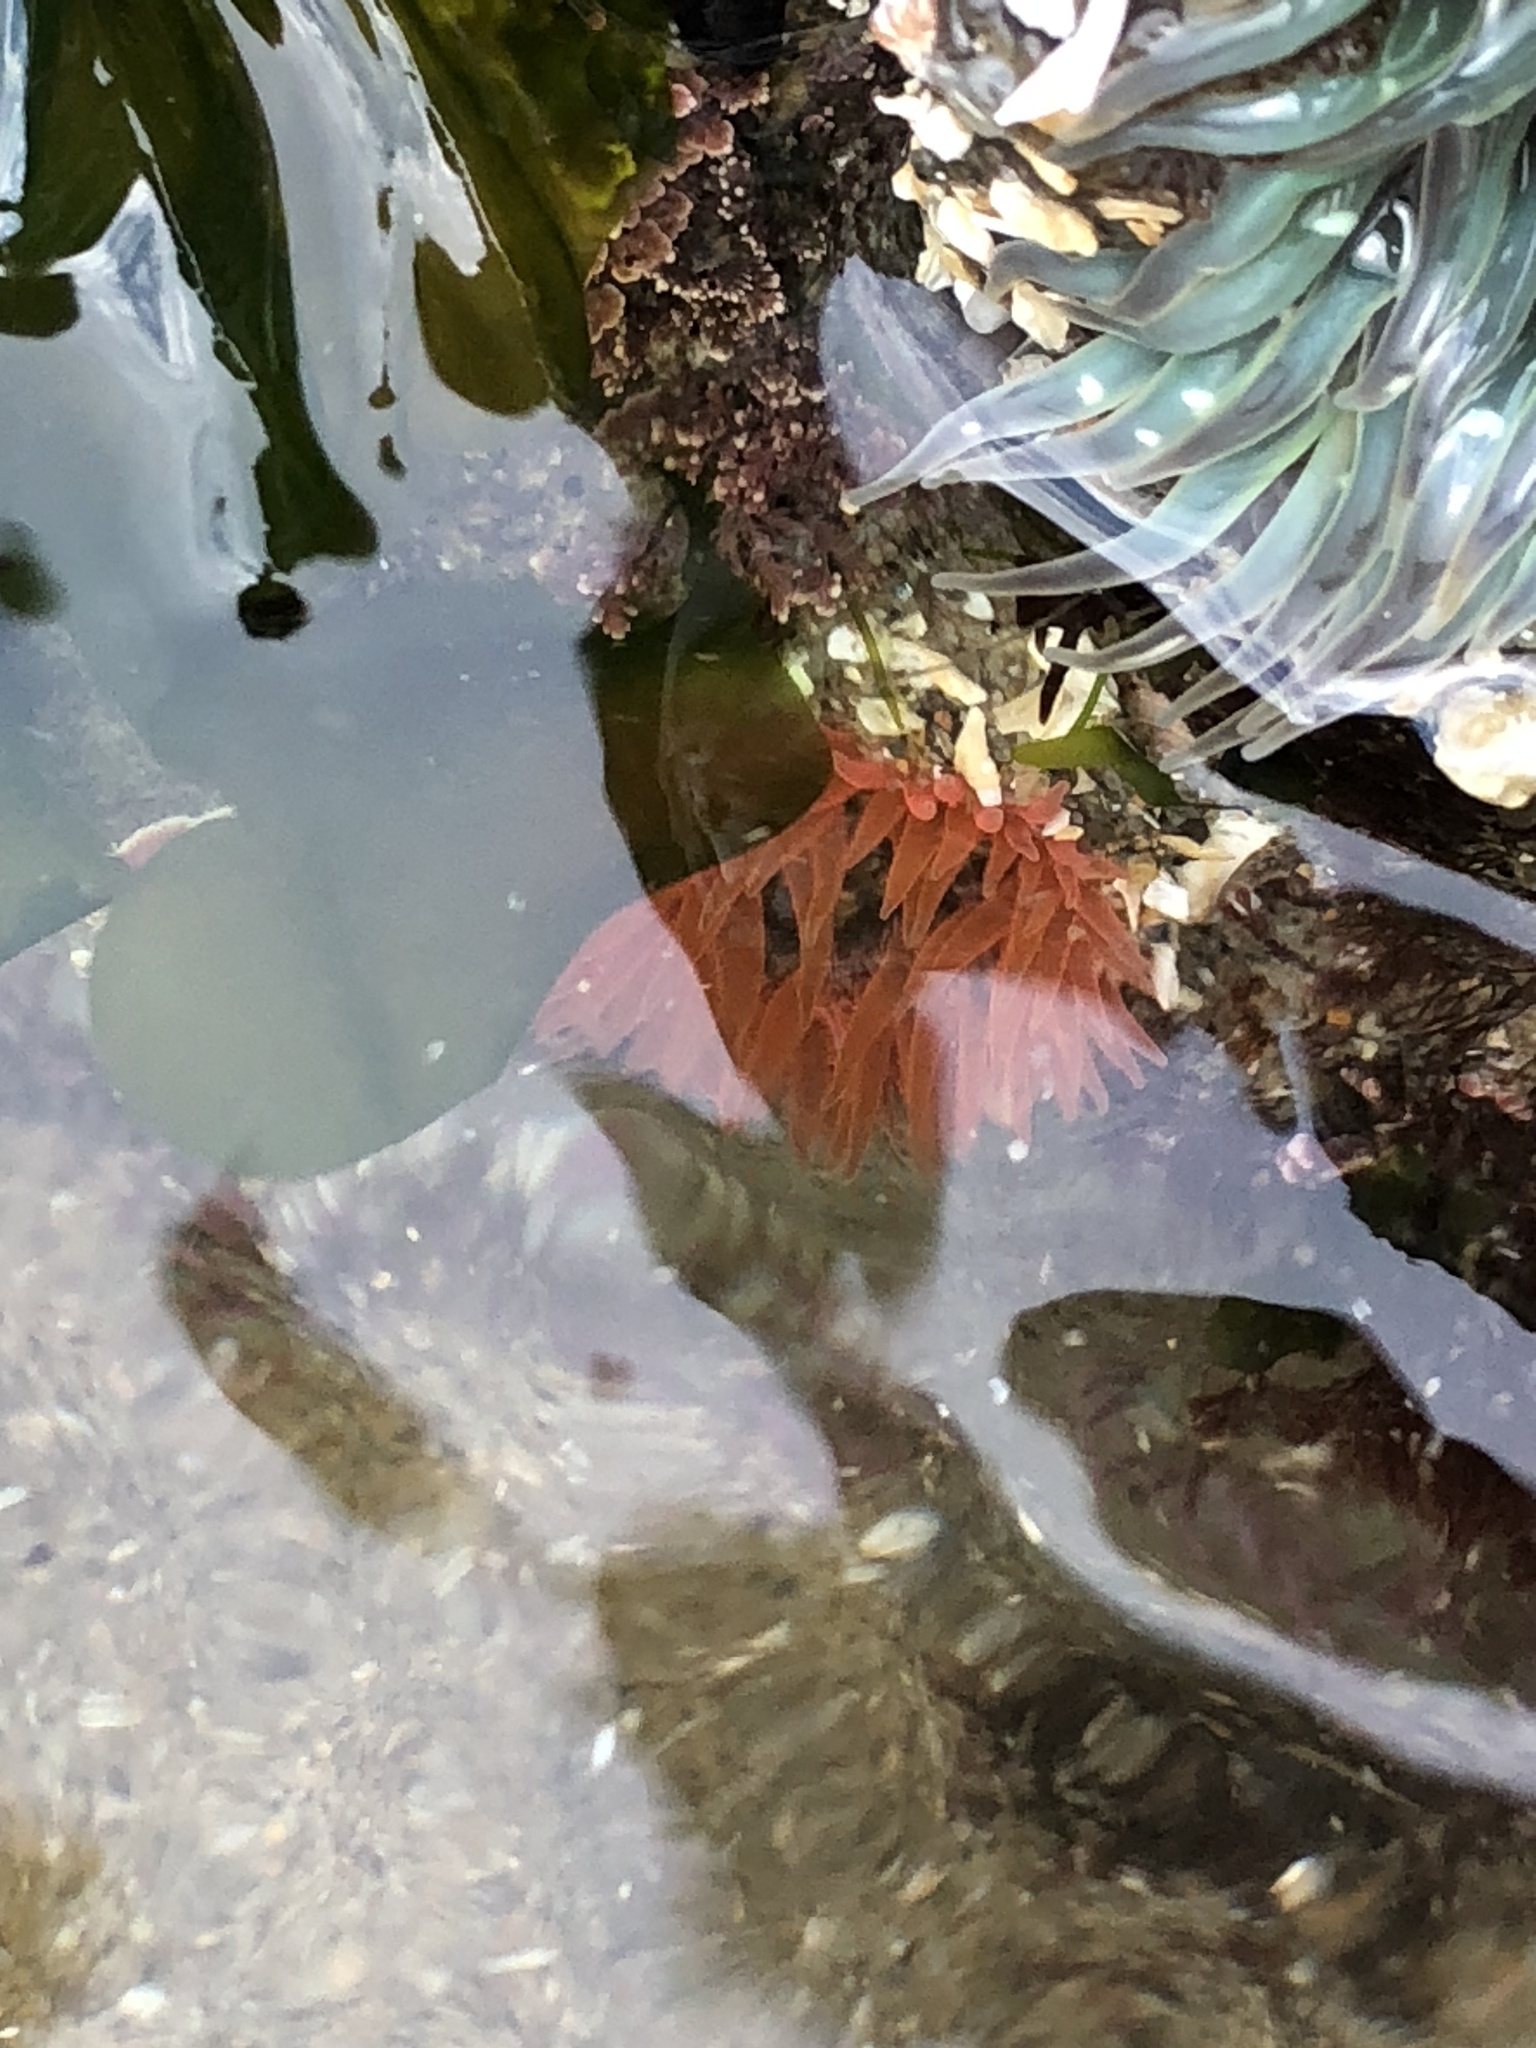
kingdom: Animalia
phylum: Cnidaria
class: Anthozoa
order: Actiniaria
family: Actiniidae
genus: Anthopleura
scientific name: Anthopleura artemisia
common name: Buried sea anemone
